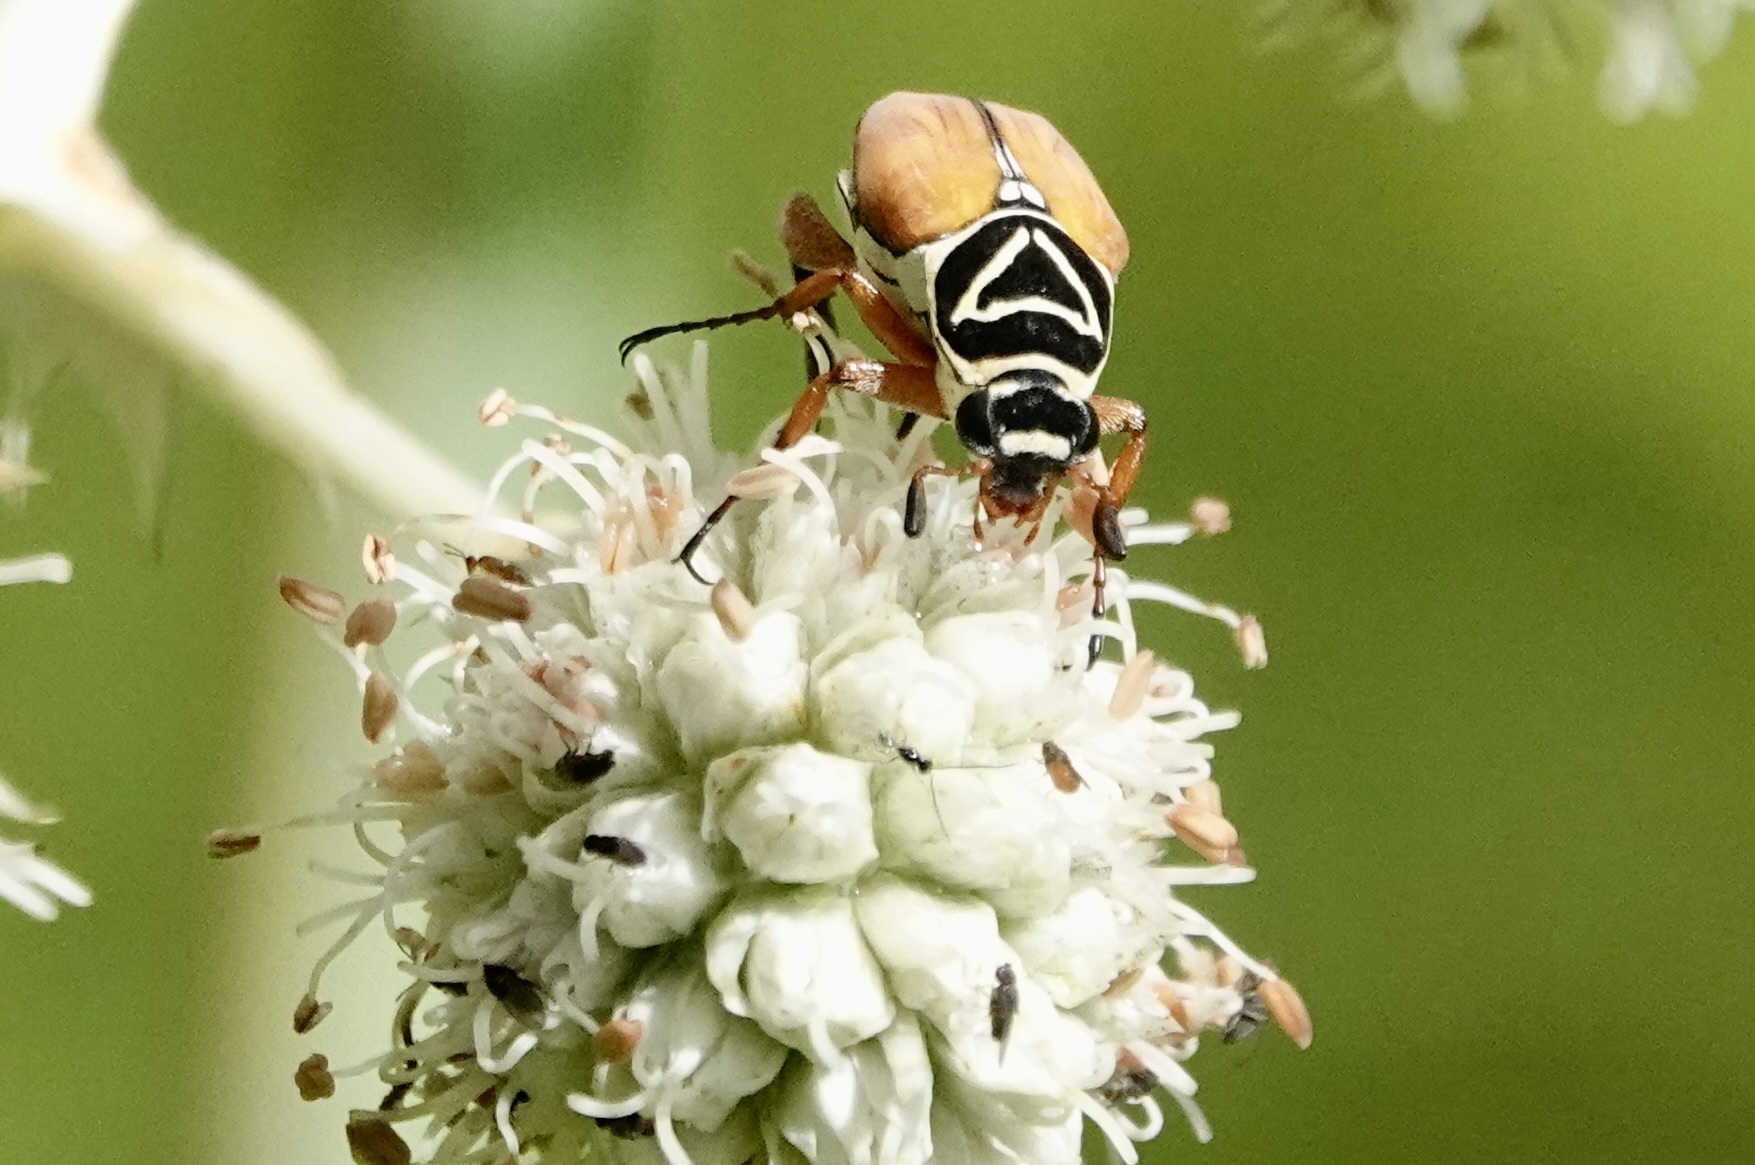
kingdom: Animalia
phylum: Arthropoda
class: Insecta
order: Coleoptera
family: Scarabaeidae
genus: Trigonopeltastes
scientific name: Trigonopeltastes delta
